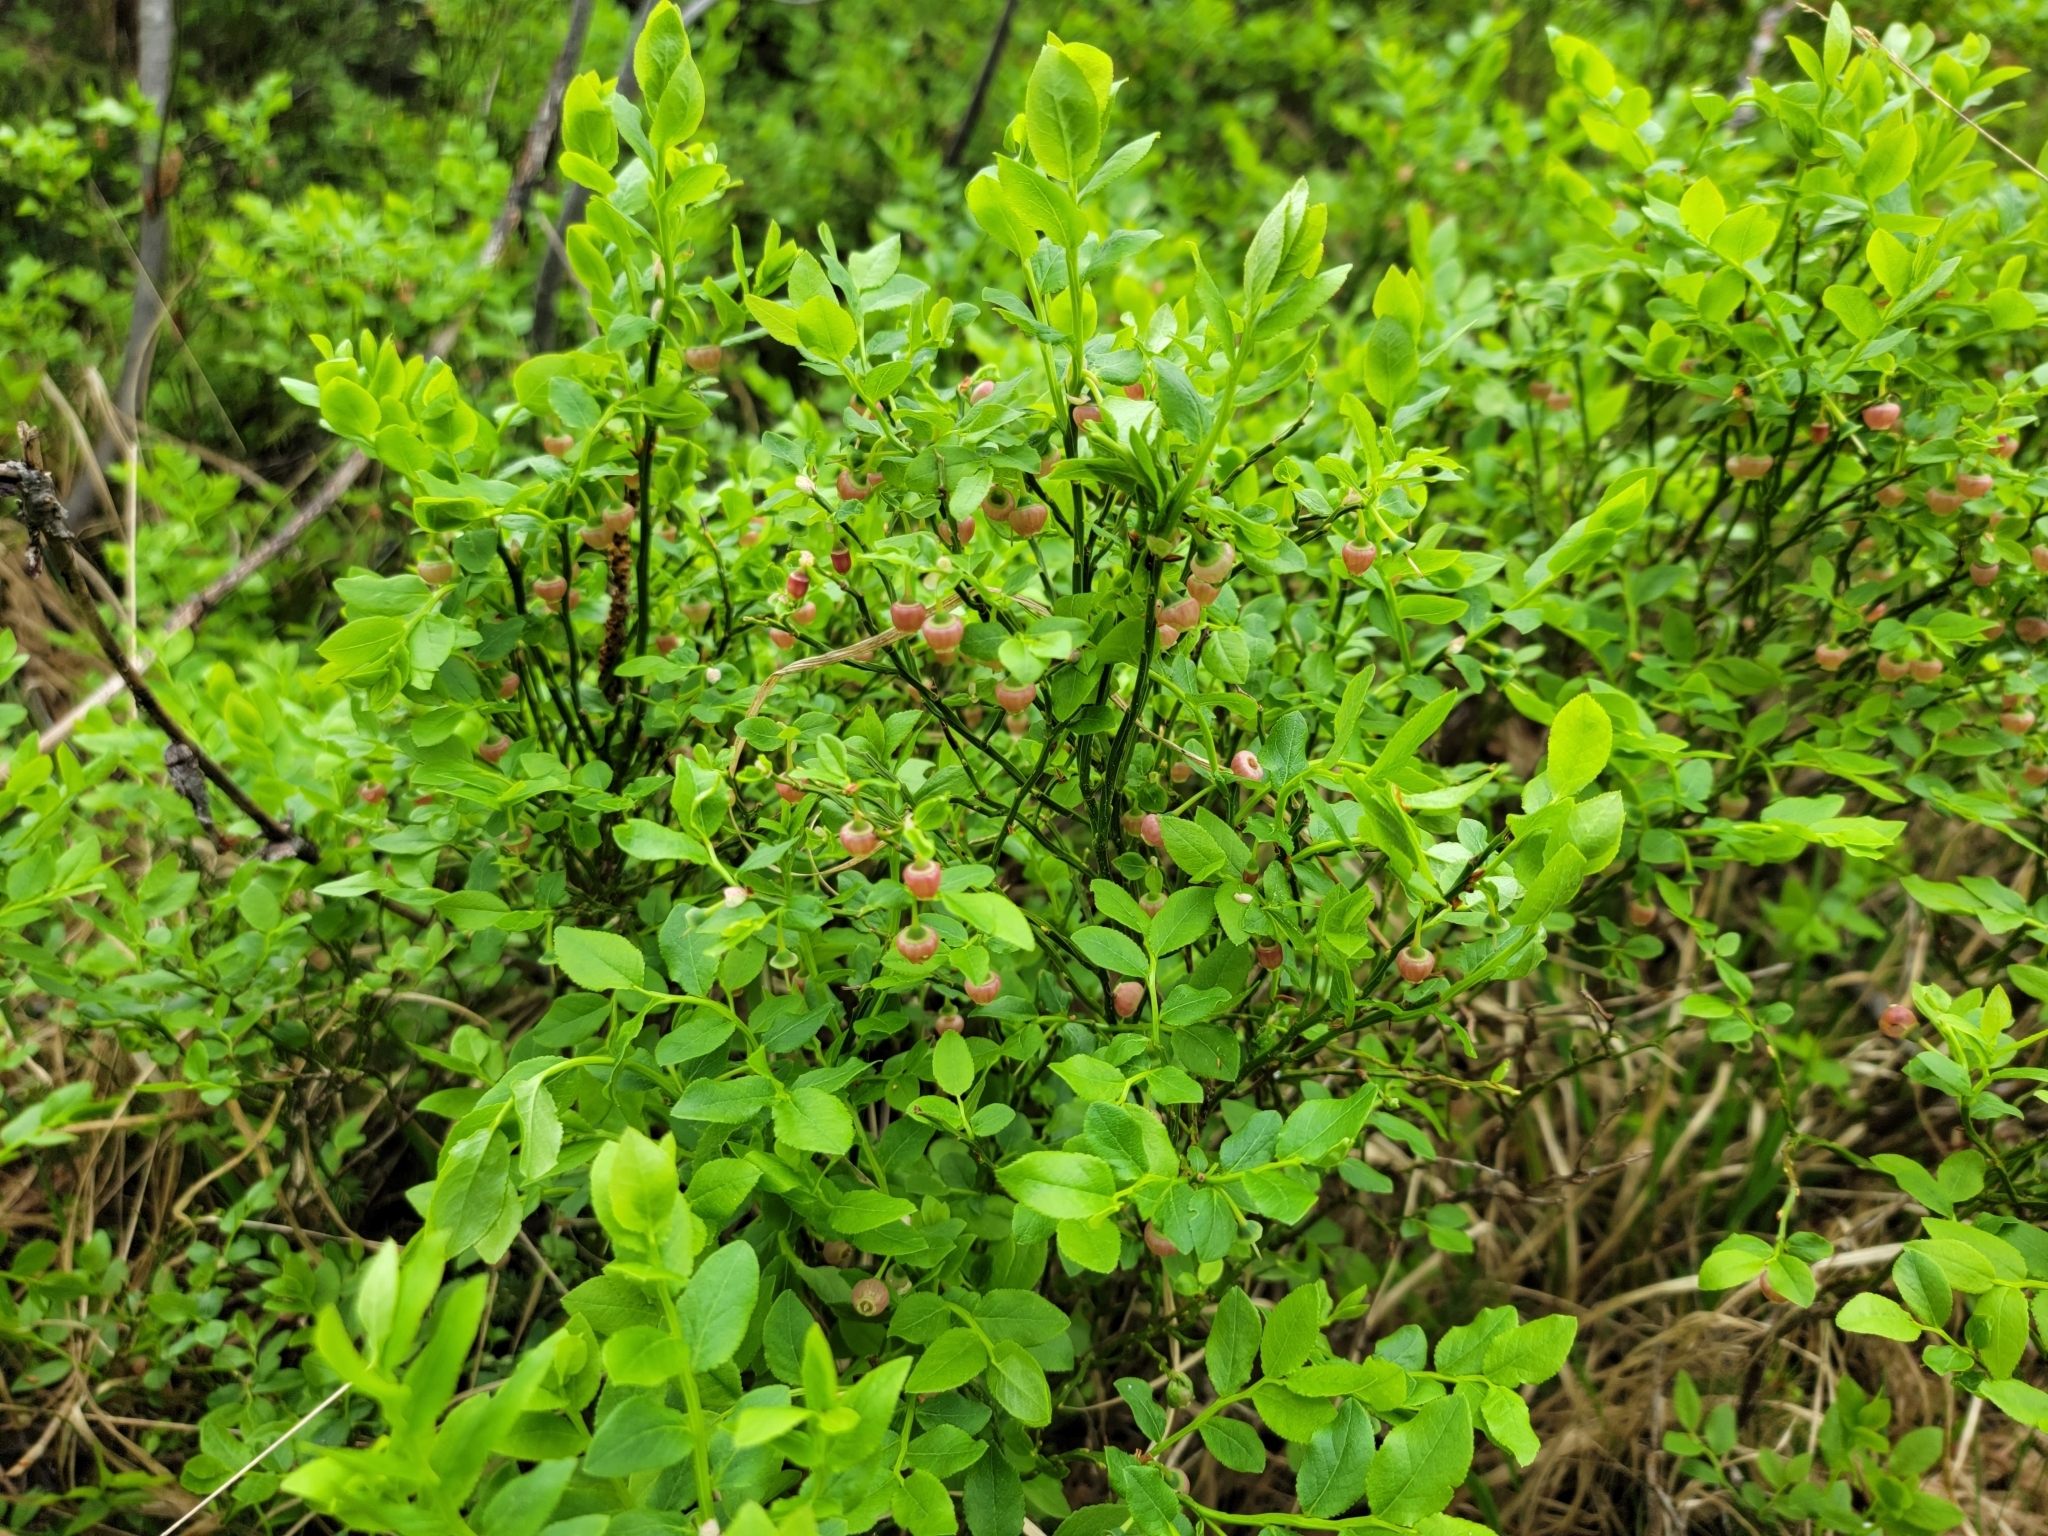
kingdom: Plantae
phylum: Tracheophyta
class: Magnoliopsida
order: Ericales
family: Ericaceae
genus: Vaccinium
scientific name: Vaccinium myrtillus
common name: Bilberry
